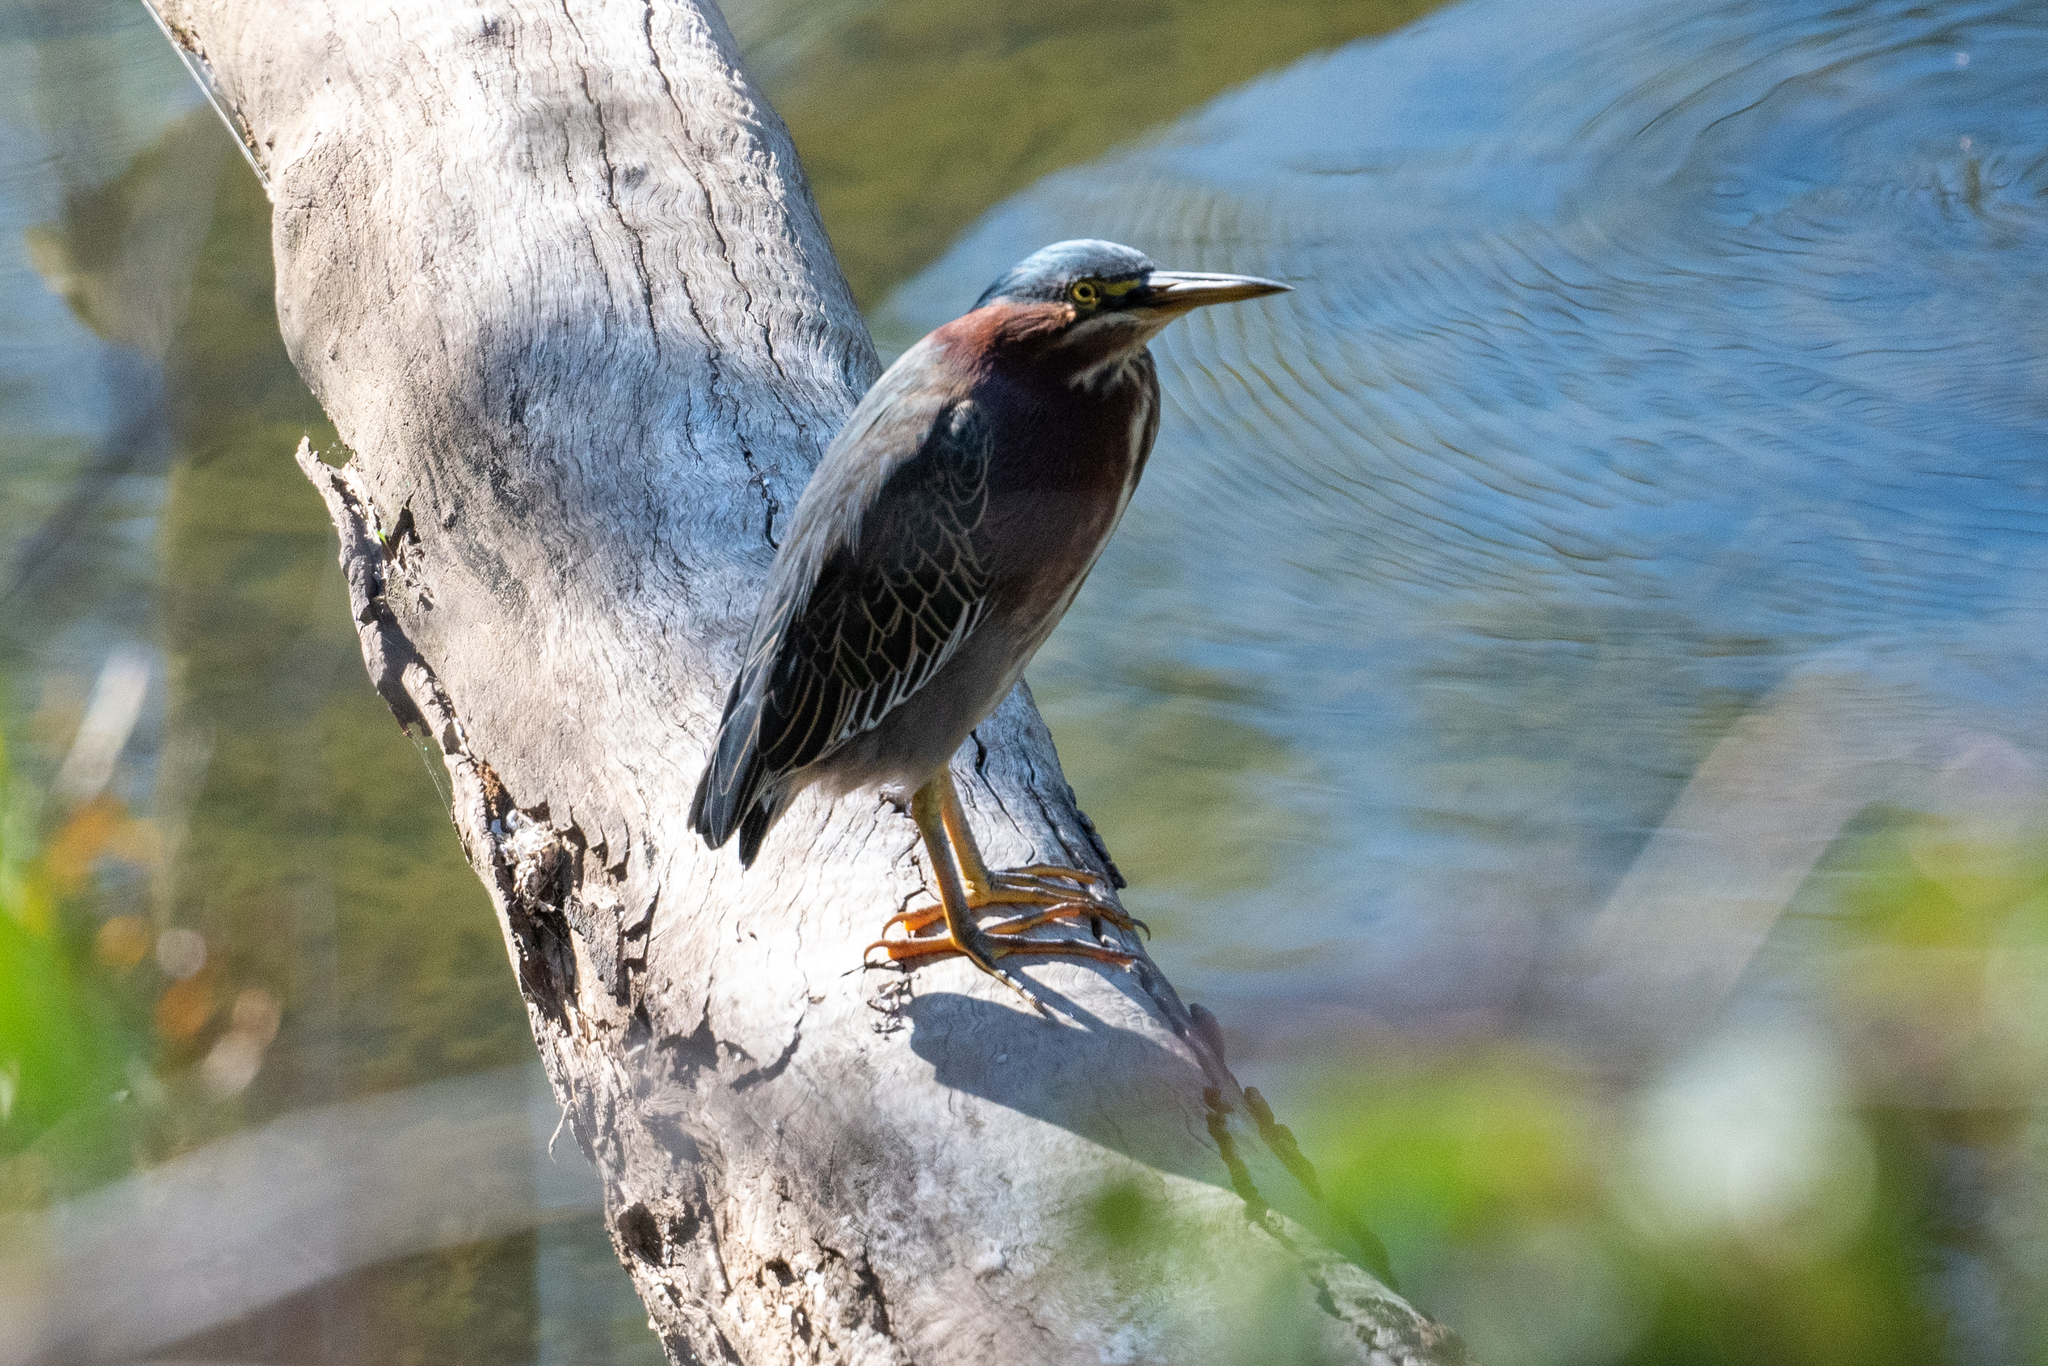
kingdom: Animalia
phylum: Chordata
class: Aves
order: Pelecaniformes
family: Ardeidae
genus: Butorides
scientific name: Butorides virescens
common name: Green heron
